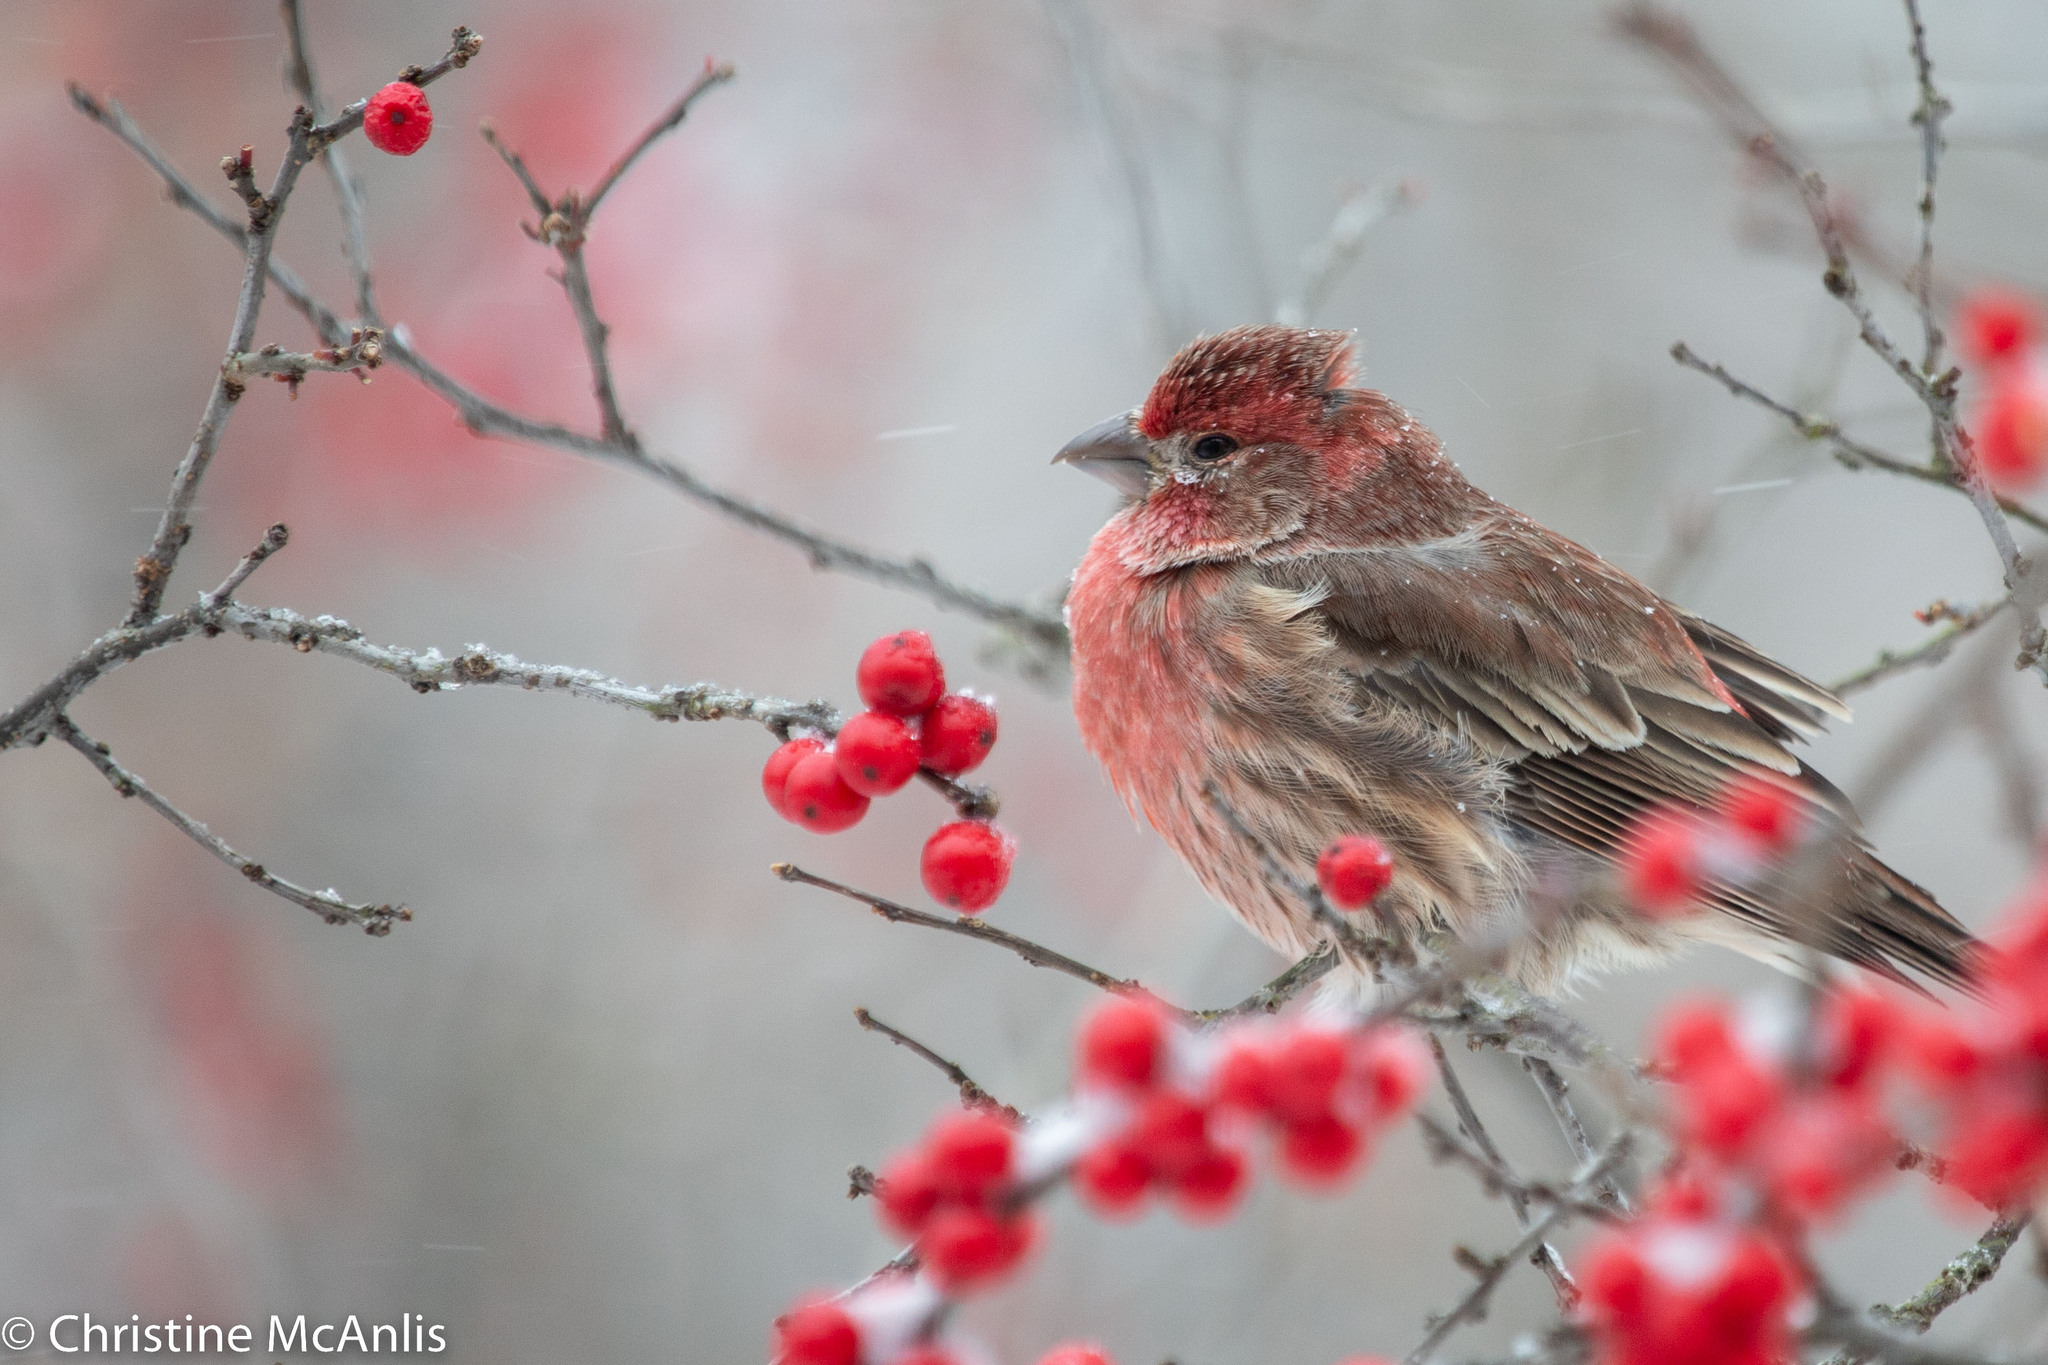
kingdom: Animalia
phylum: Chordata
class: Aves
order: Passeriformes
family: Fringillidae
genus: Haemorhous
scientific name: Haemorhous mexicanus
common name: House finch
